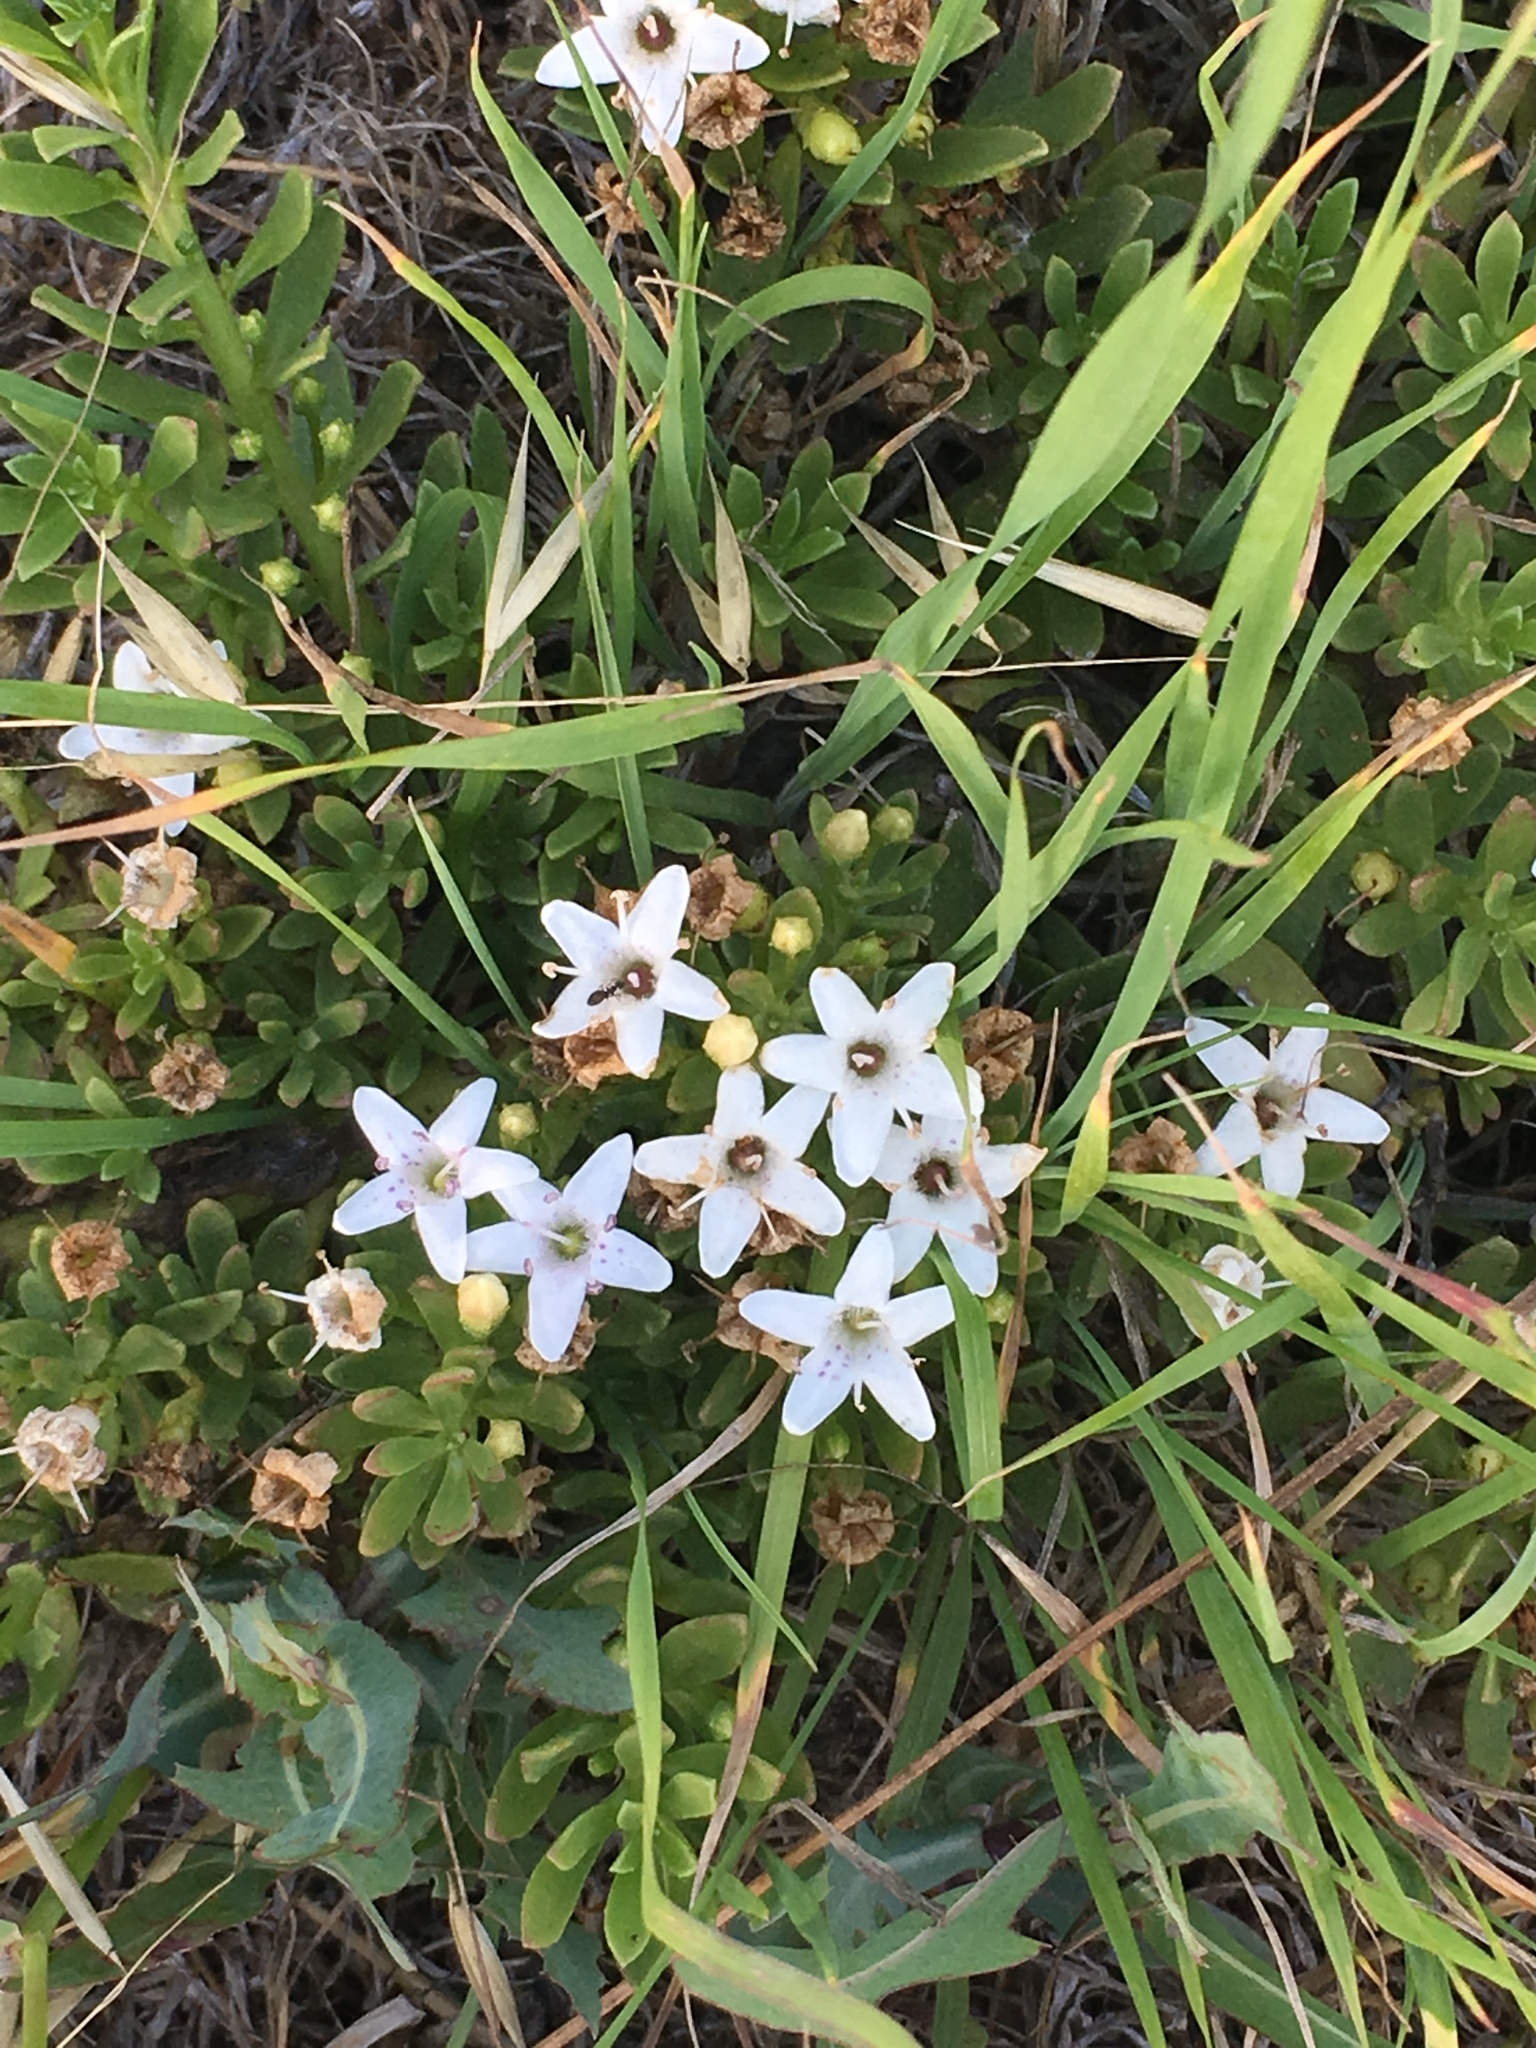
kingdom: Plantae
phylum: Tracheophyta
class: Magnoliopsida
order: Lamiales
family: Scrophulariaceae
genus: Myoporum
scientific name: Myoporum parvifolium
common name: Dwarf native-myrtle
